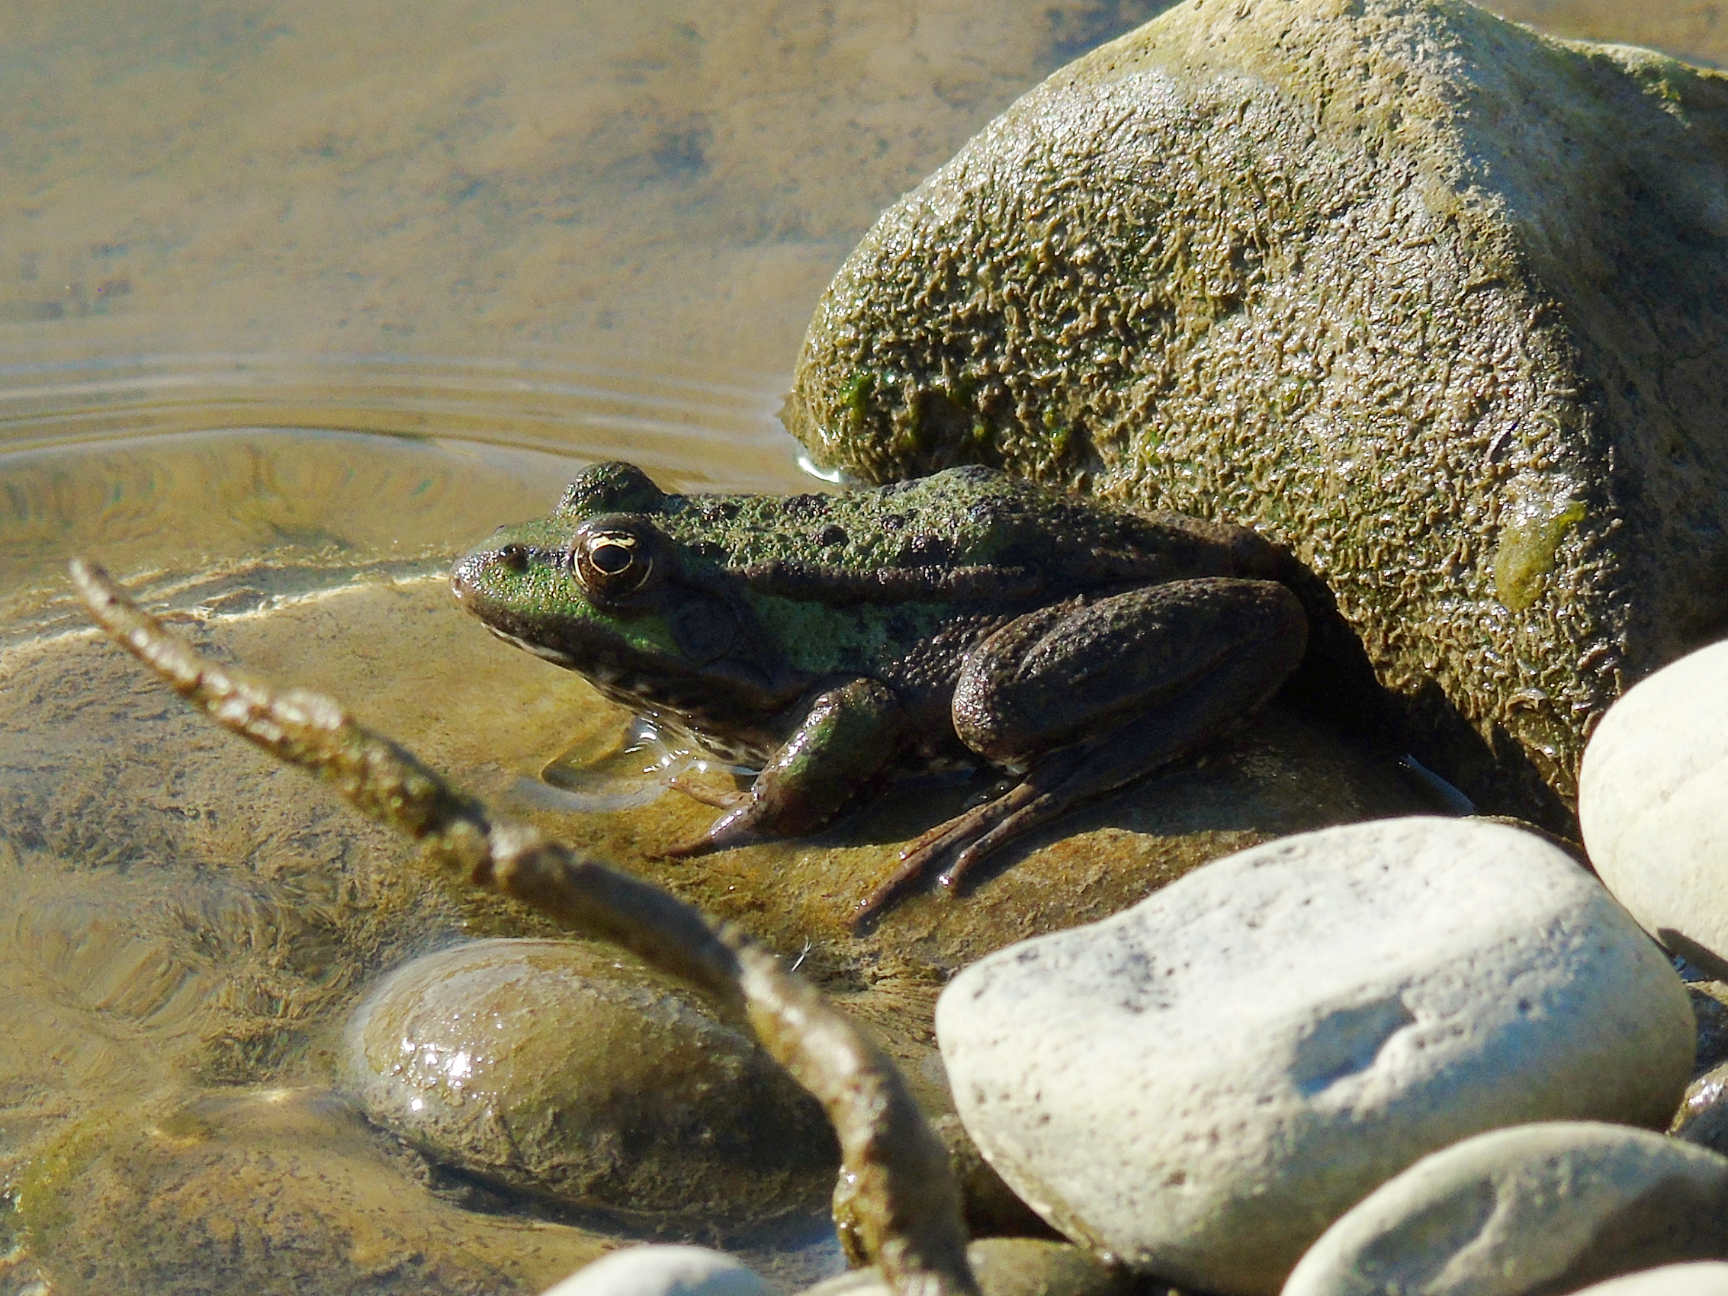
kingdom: Animalia
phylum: Chordata
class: Amphibia
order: Anura
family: Ranidae
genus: Pelophylax
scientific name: Pelophylax ridibundus
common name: Marsh frog
